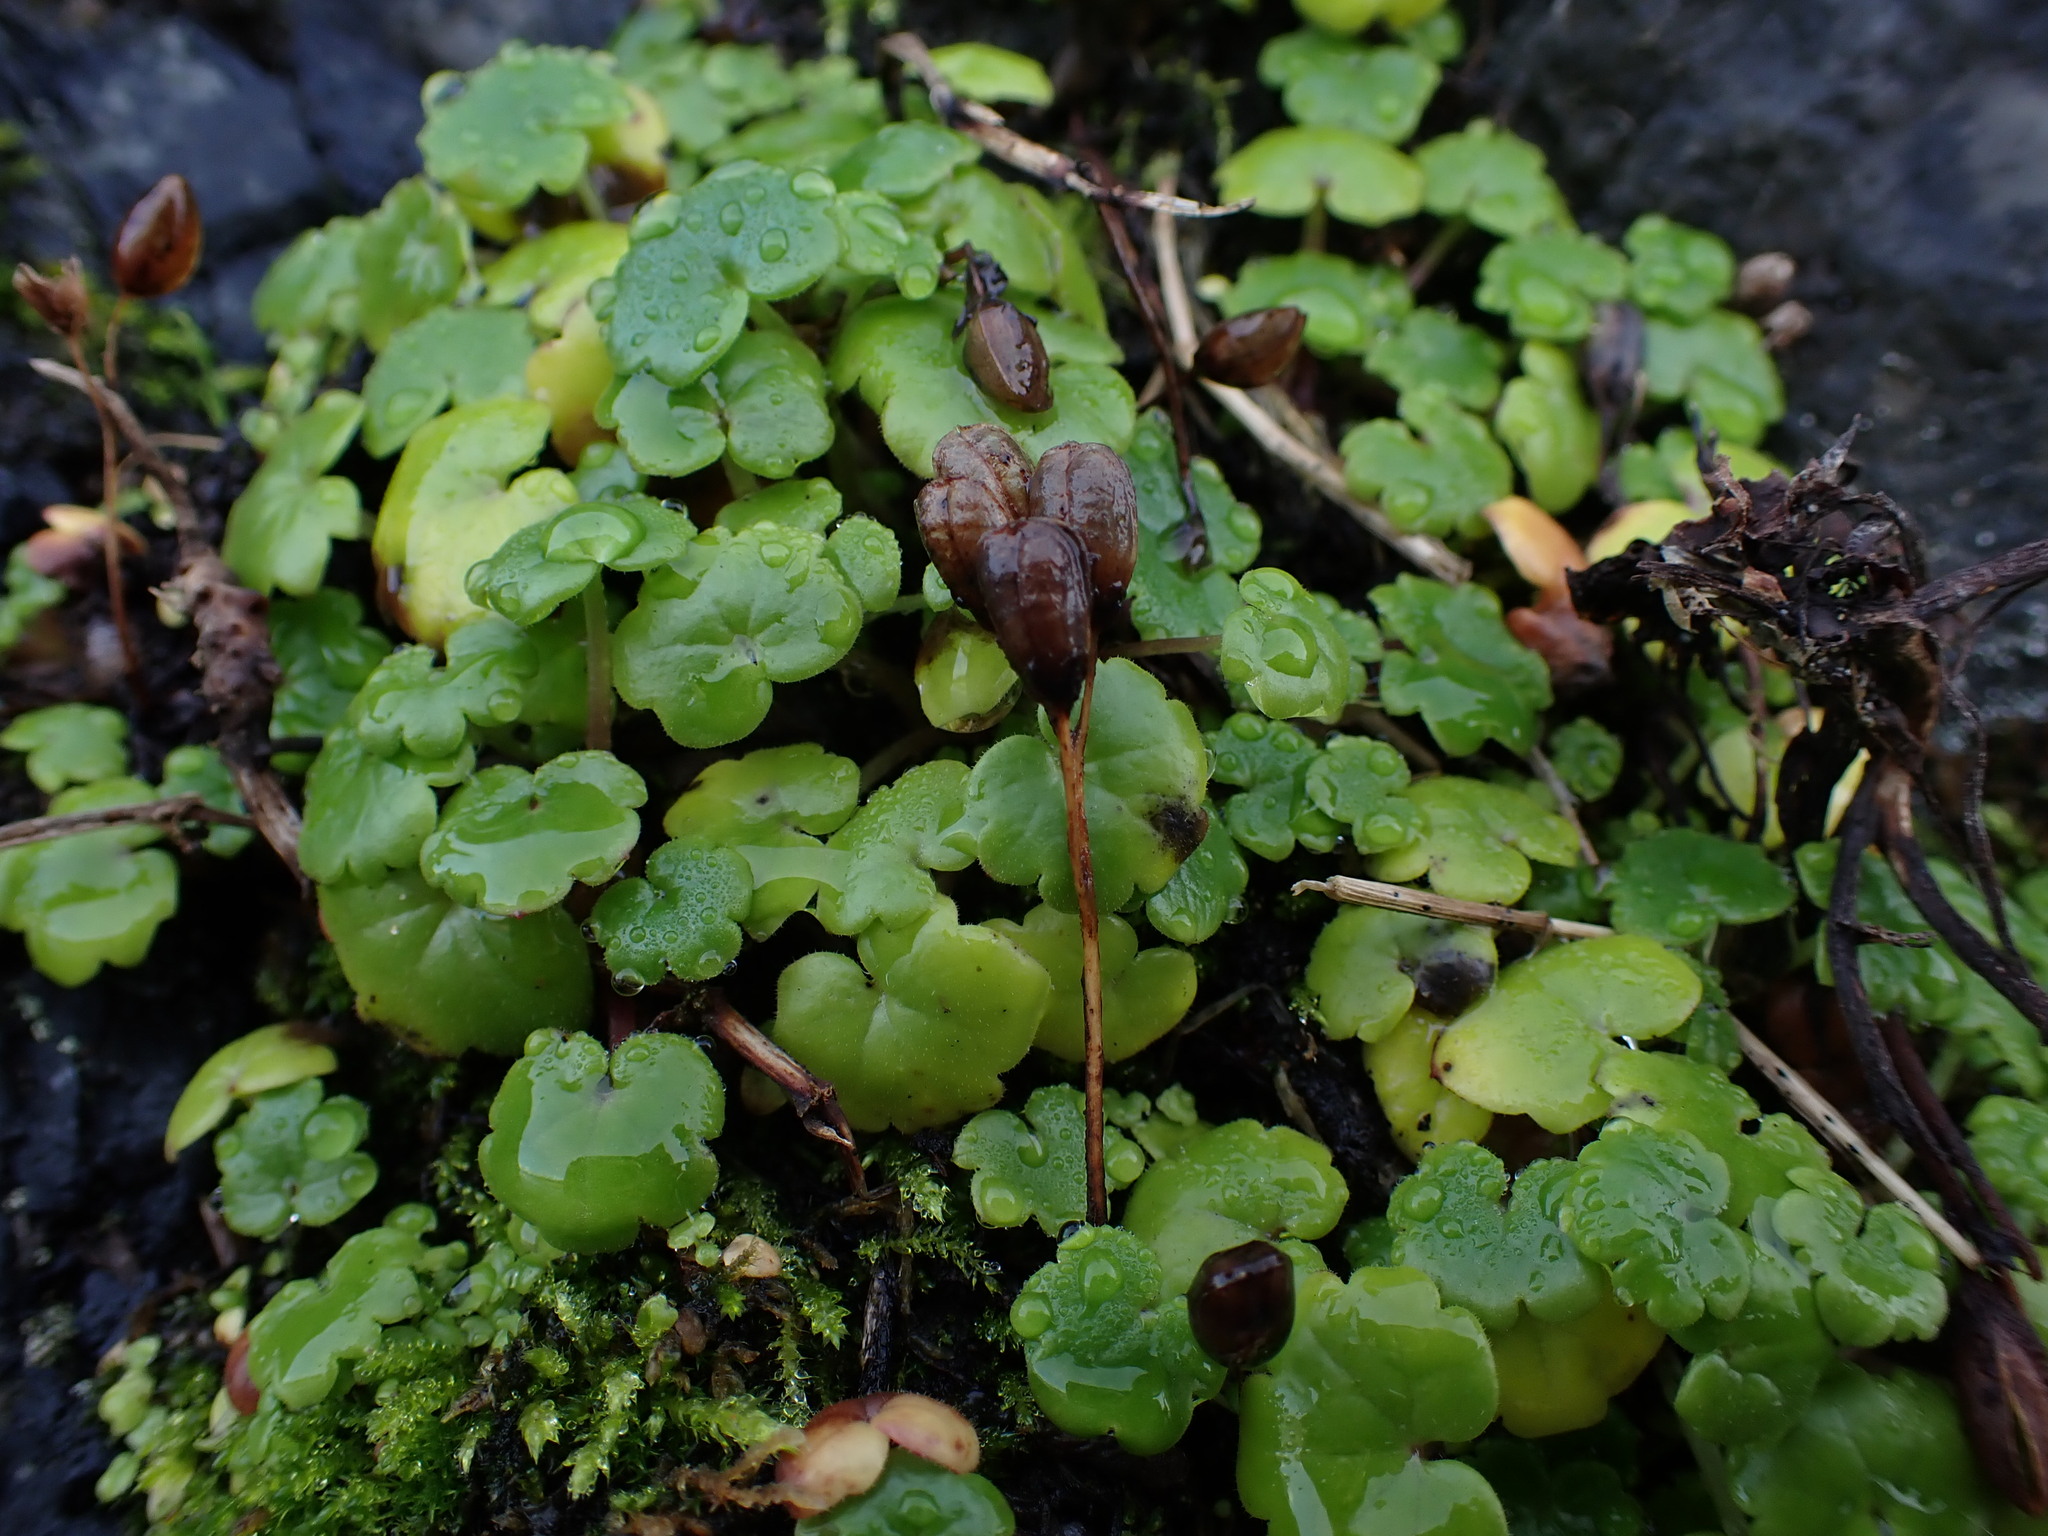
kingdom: Plantae
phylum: Tracheophyta
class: Magnoliopsida
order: Boraginales
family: Hydrophyllaceae
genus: Romanzoffia
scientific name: Romanzoffia tracyi
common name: Tracy's mistmaid
